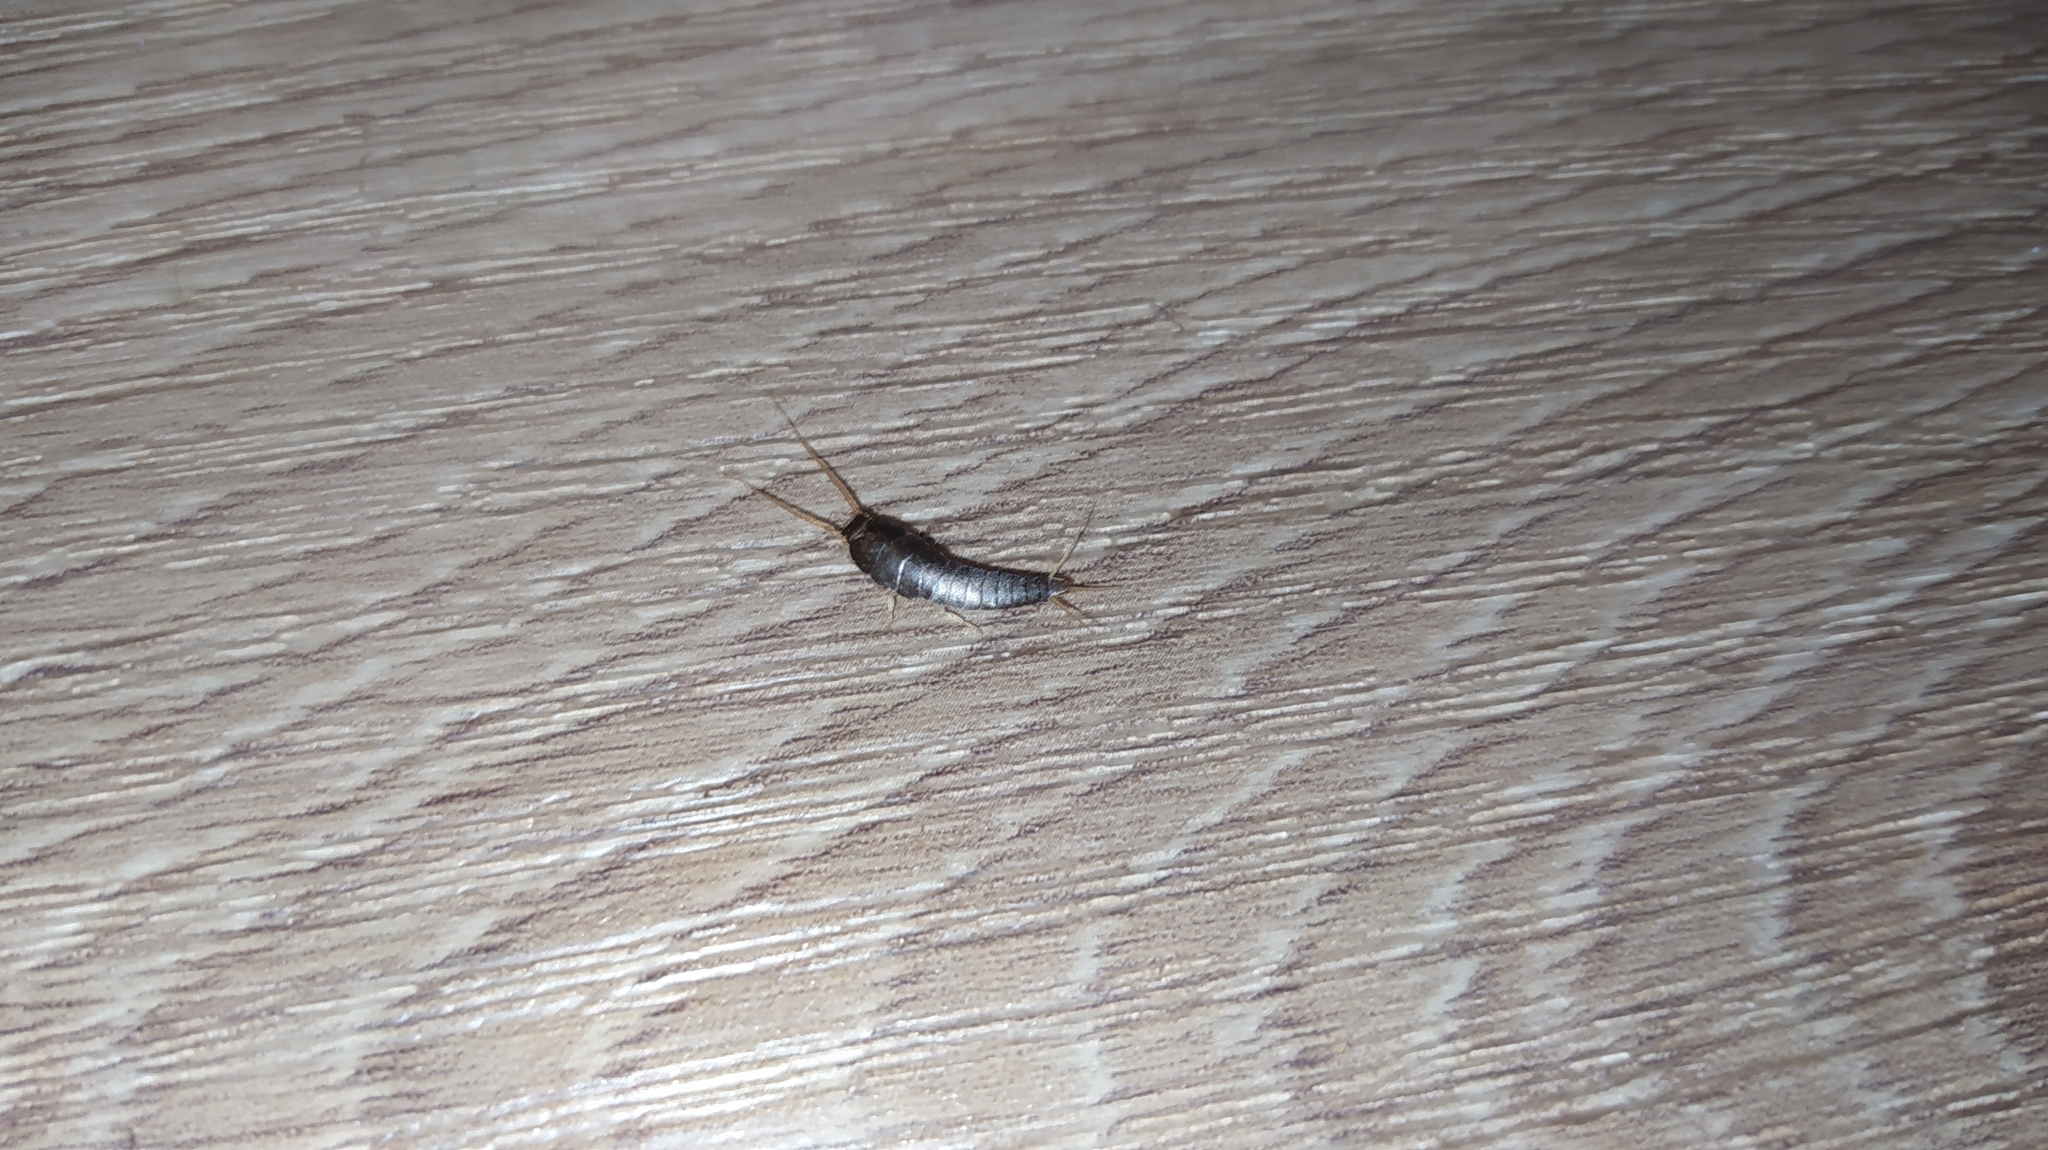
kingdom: Animalia
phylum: Arthropoda
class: Insecta
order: Zygentoma
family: Lepismatidae
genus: Lepisma
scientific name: Lepisma saccharinum
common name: Silverfish
